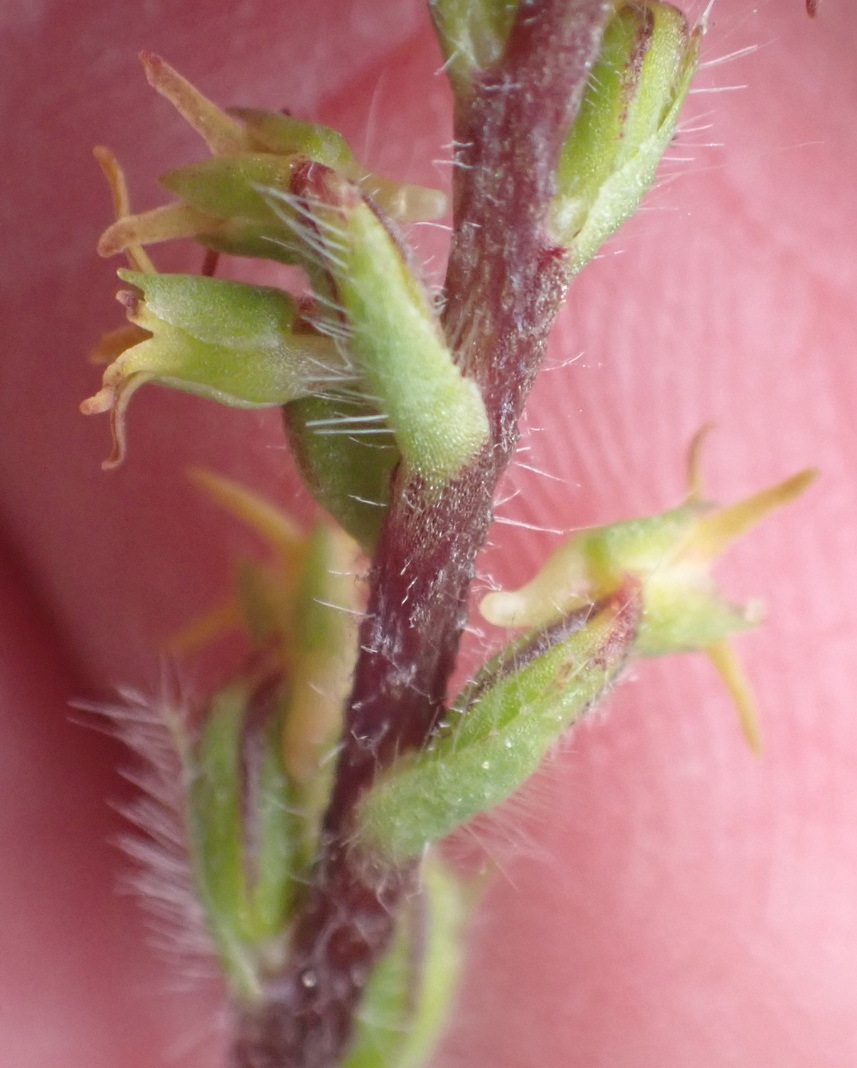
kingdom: Plantae
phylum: Tracheophyta
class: Liliopsida
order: Asparagales
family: Orchidaceae
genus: Holothrix
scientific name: Holothrix villosa
